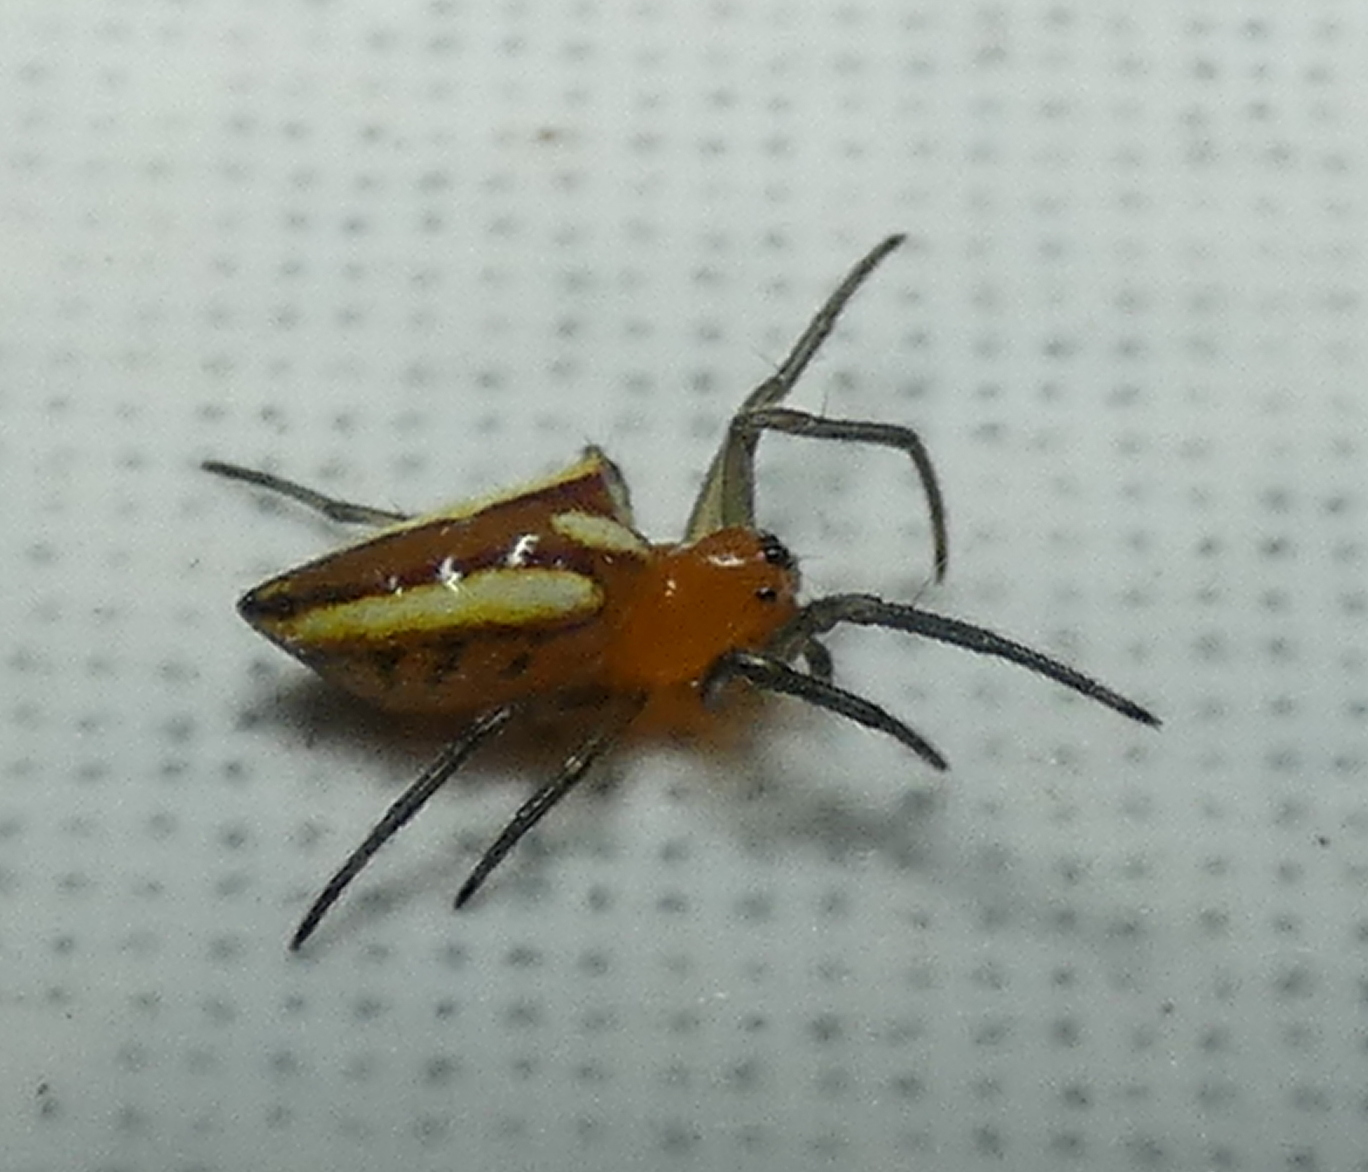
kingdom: Animalia
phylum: Arthropoda
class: Arachnida
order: Araneae
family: Araneidae
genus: Alpaida
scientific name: Alpaida bicornuta
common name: Orb weavers
